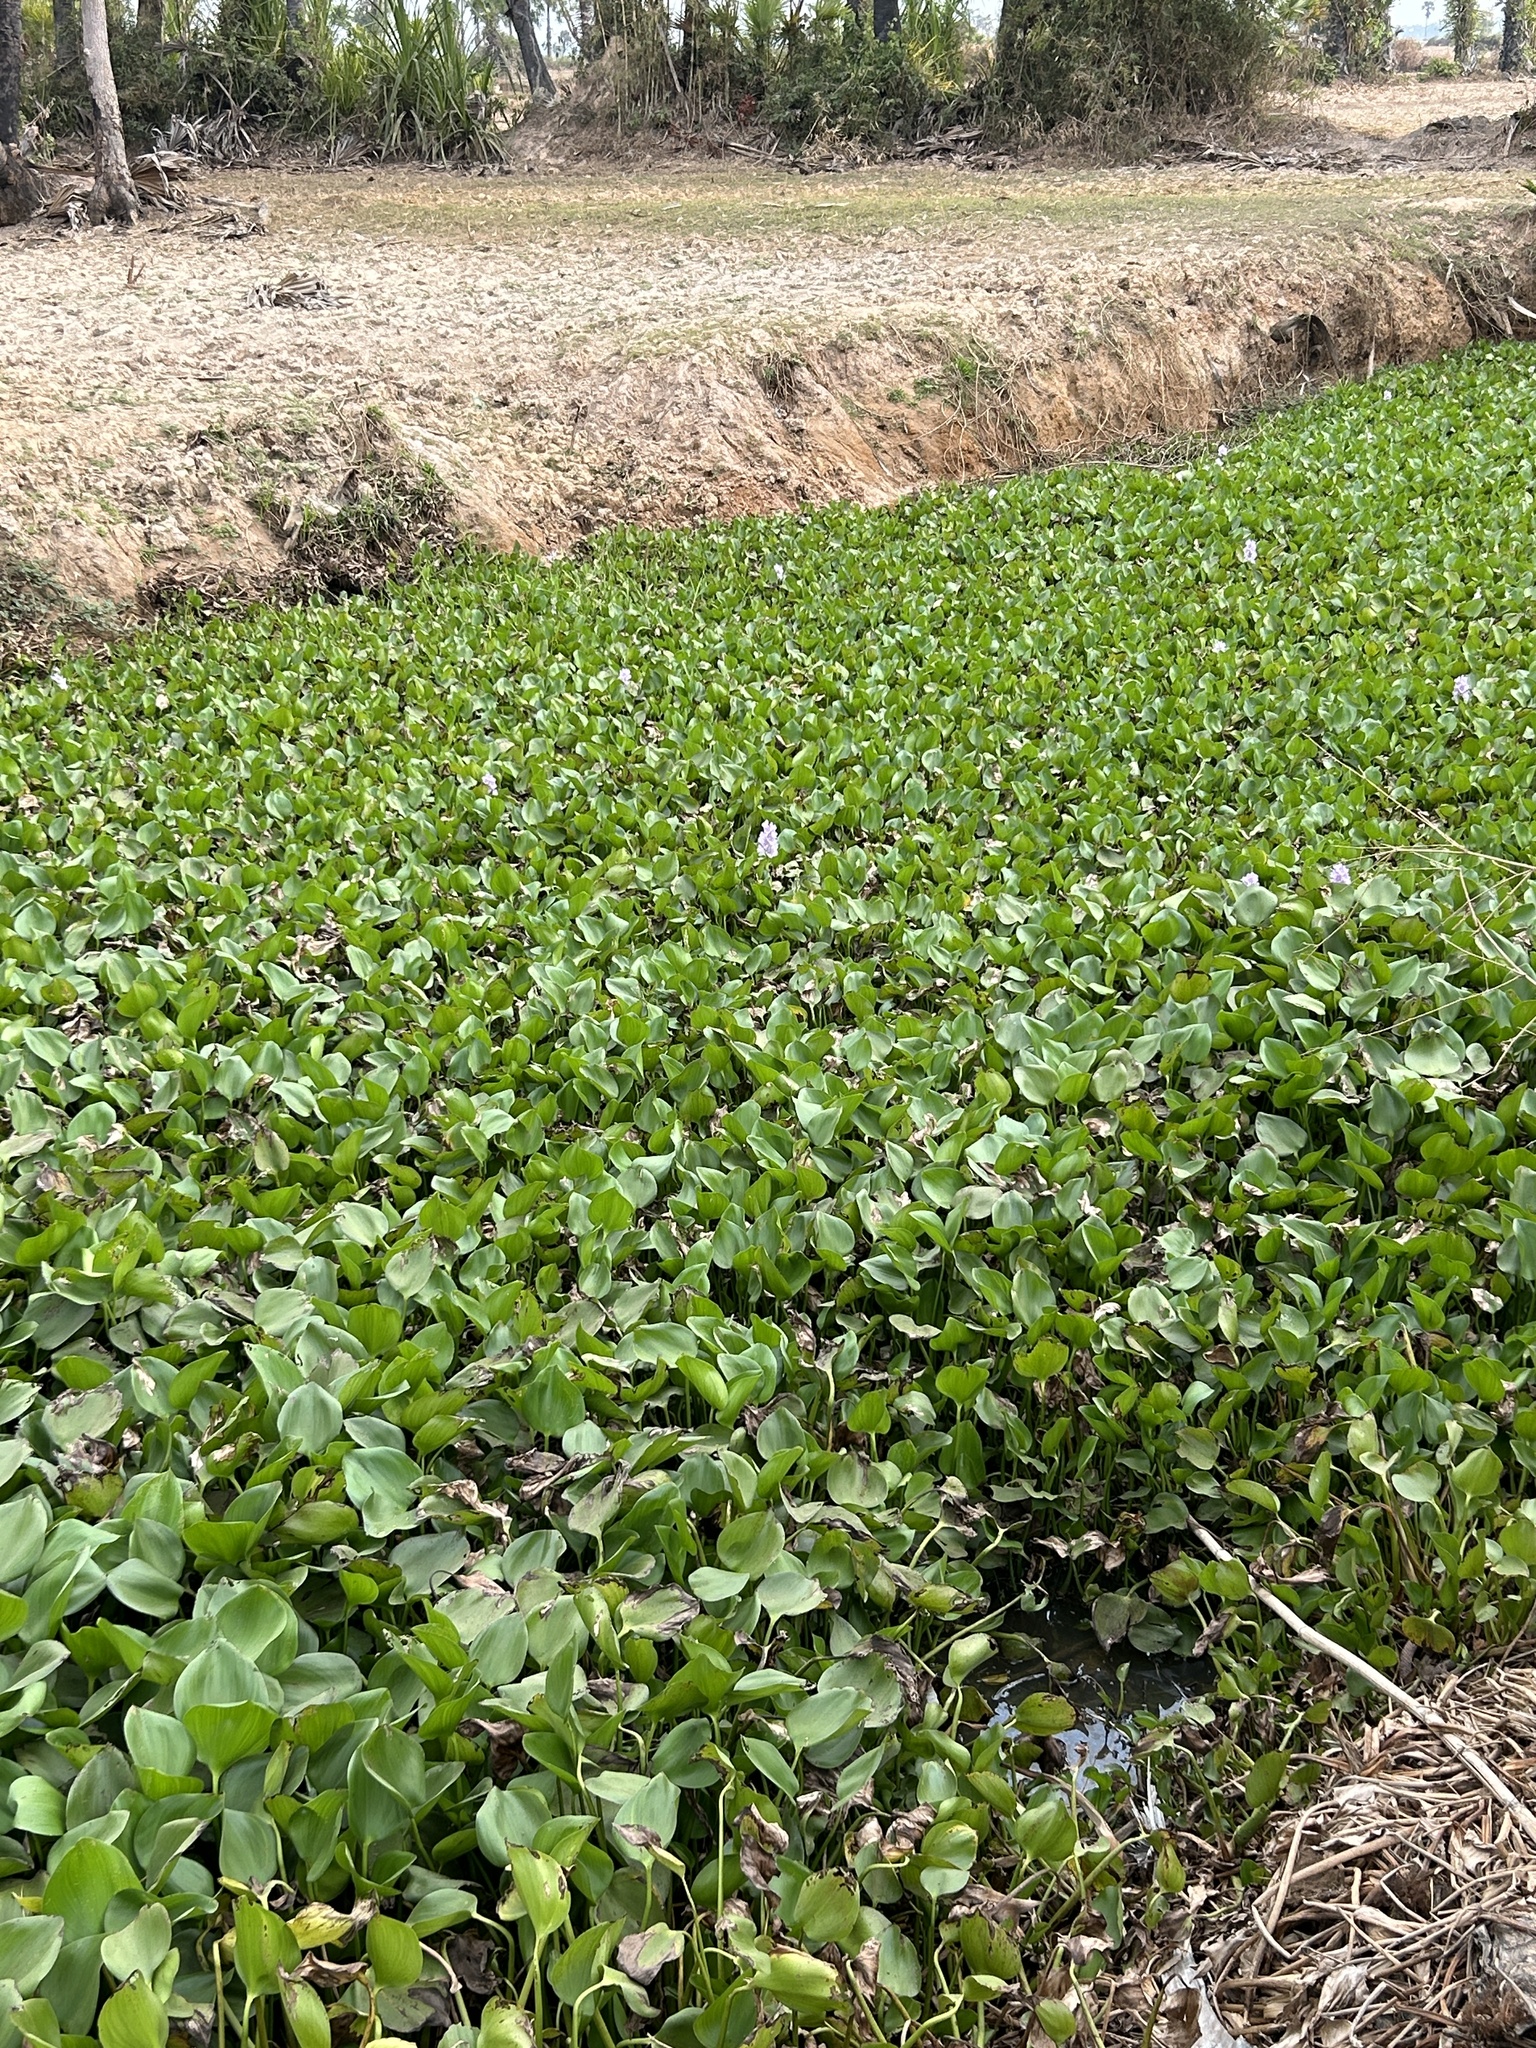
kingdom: Plantae
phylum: Tracheophyta
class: Liliopsida
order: Commelinales
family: Pontederiaceae
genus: Pontederia
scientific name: Pontederia crassipes
